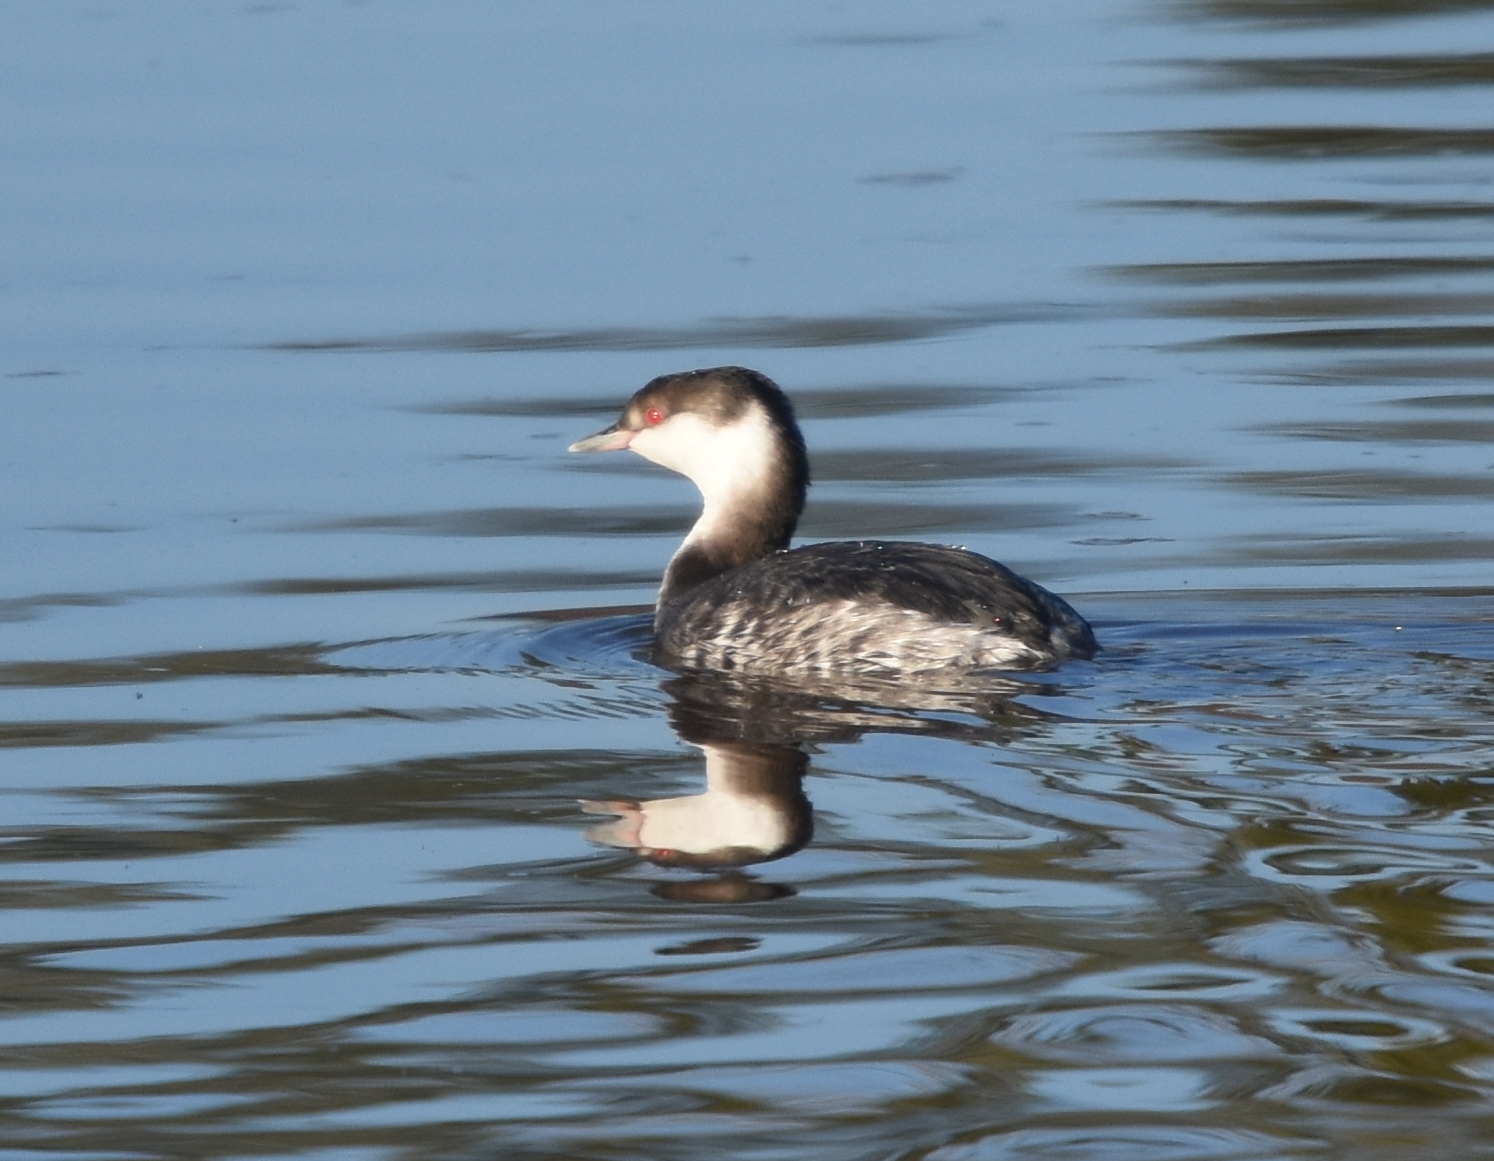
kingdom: Animalia
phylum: Chordata
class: Aves
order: Podicipediformes
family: Podicipedidae
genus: Podiceps
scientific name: Podiceps auritus
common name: Horned grebe
